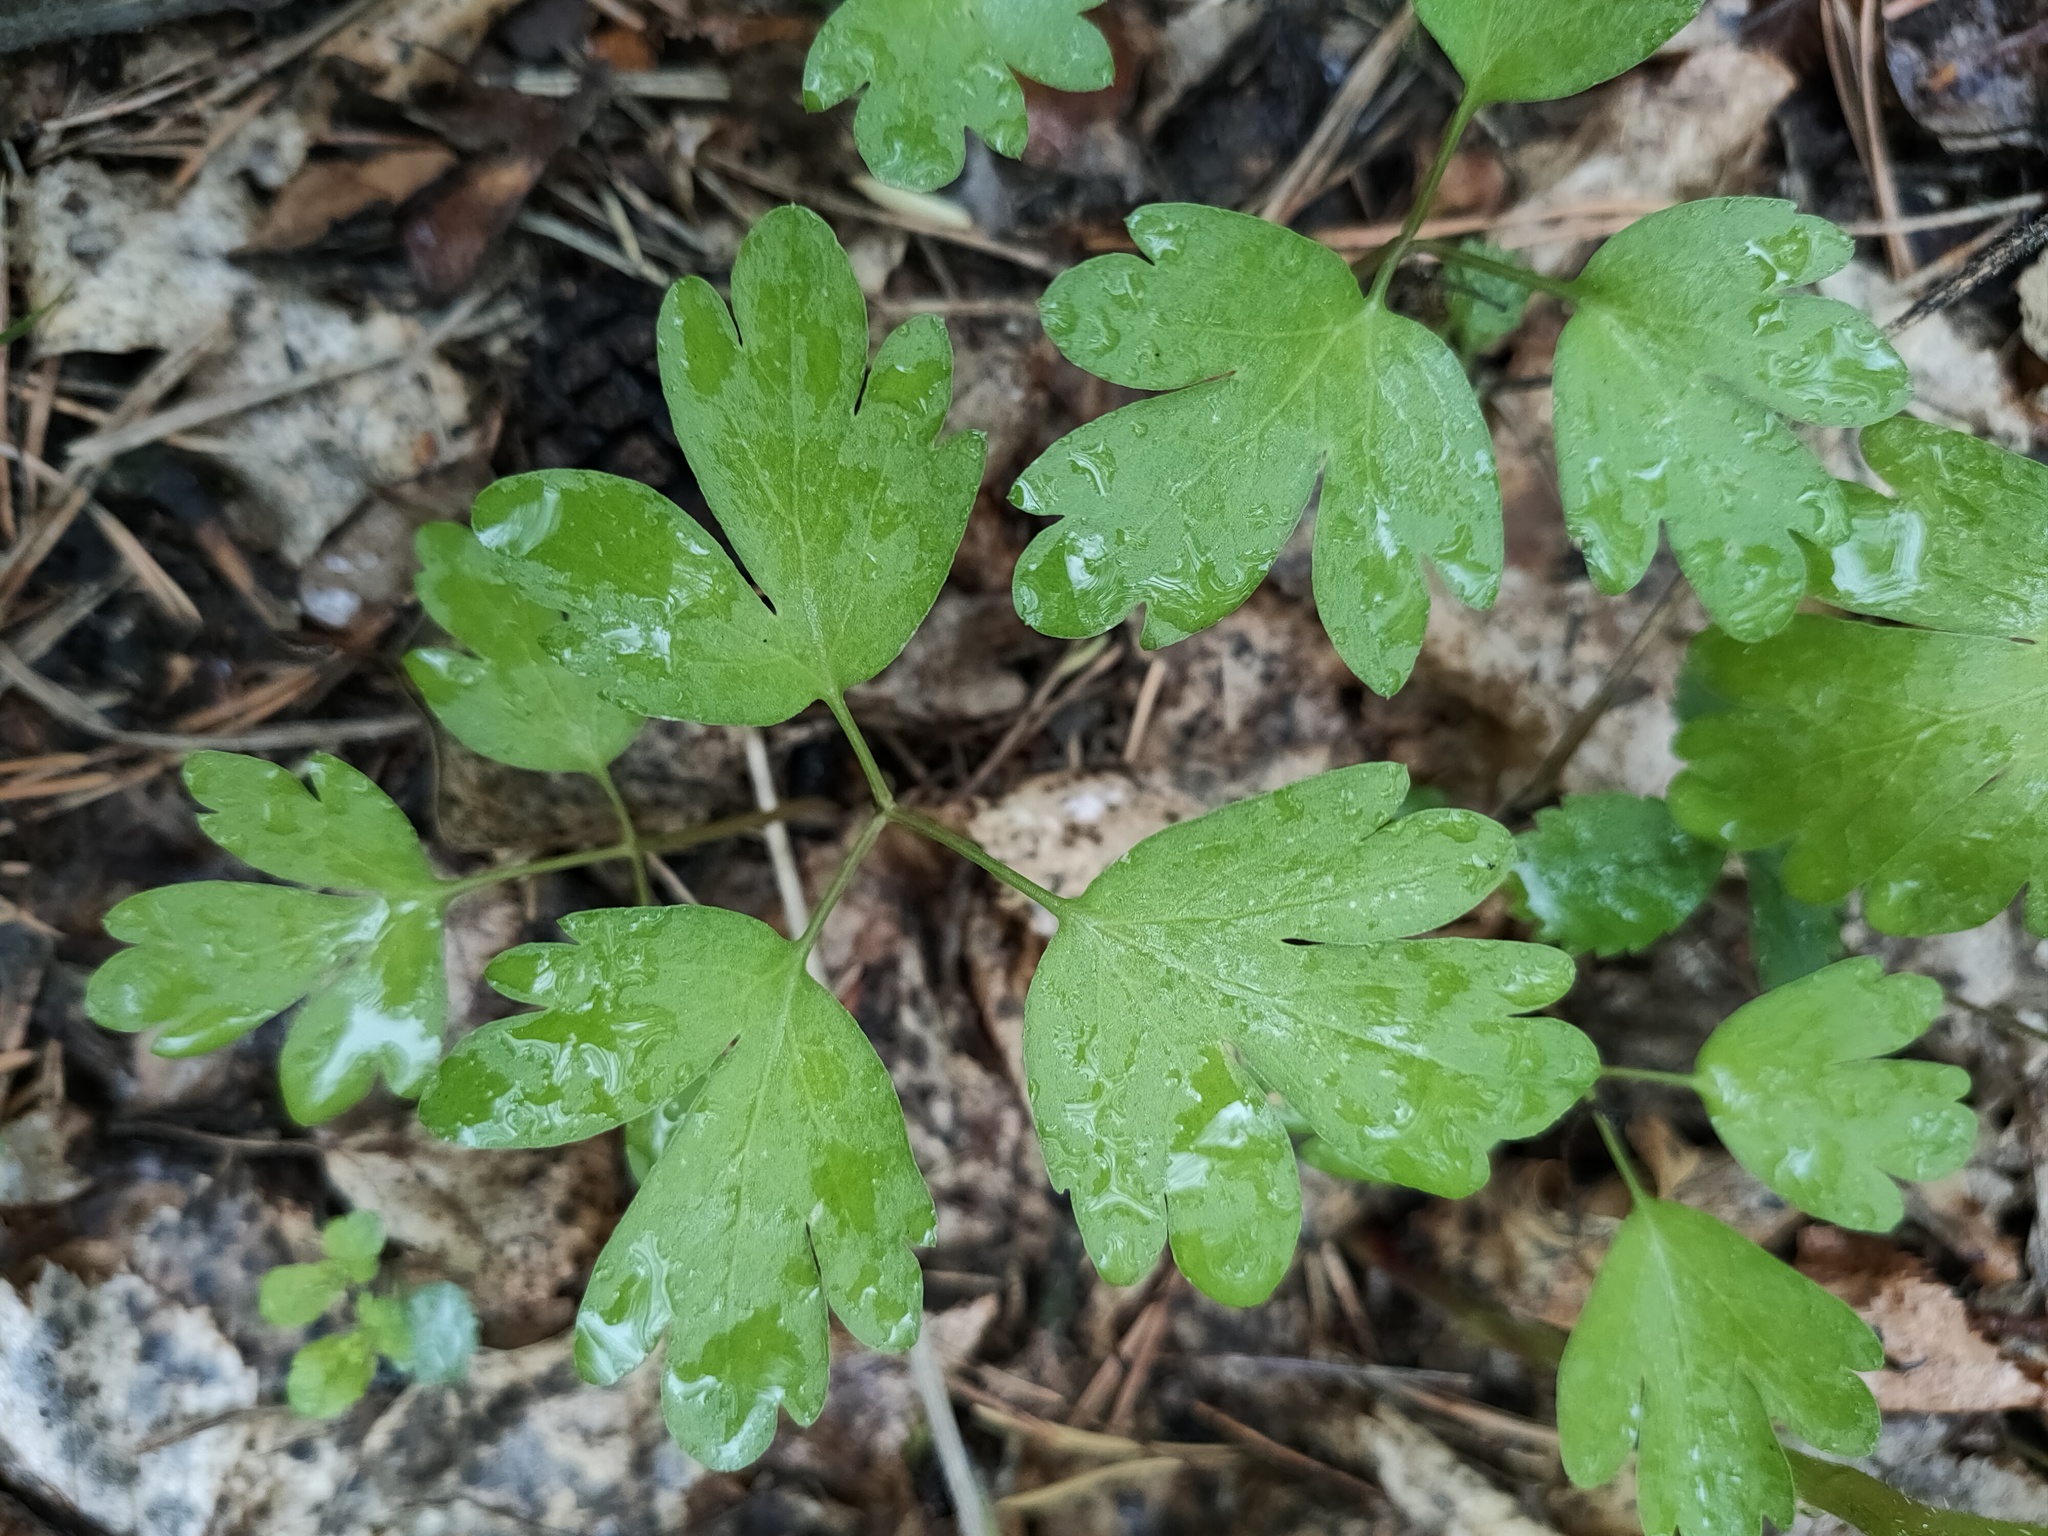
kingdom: Plantae
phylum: Tracheophyta
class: Magnoliopsida
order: Dipsacales
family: Viburnaceae
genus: Adoxa
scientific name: Adoxa moschatellina
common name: Moschatel
